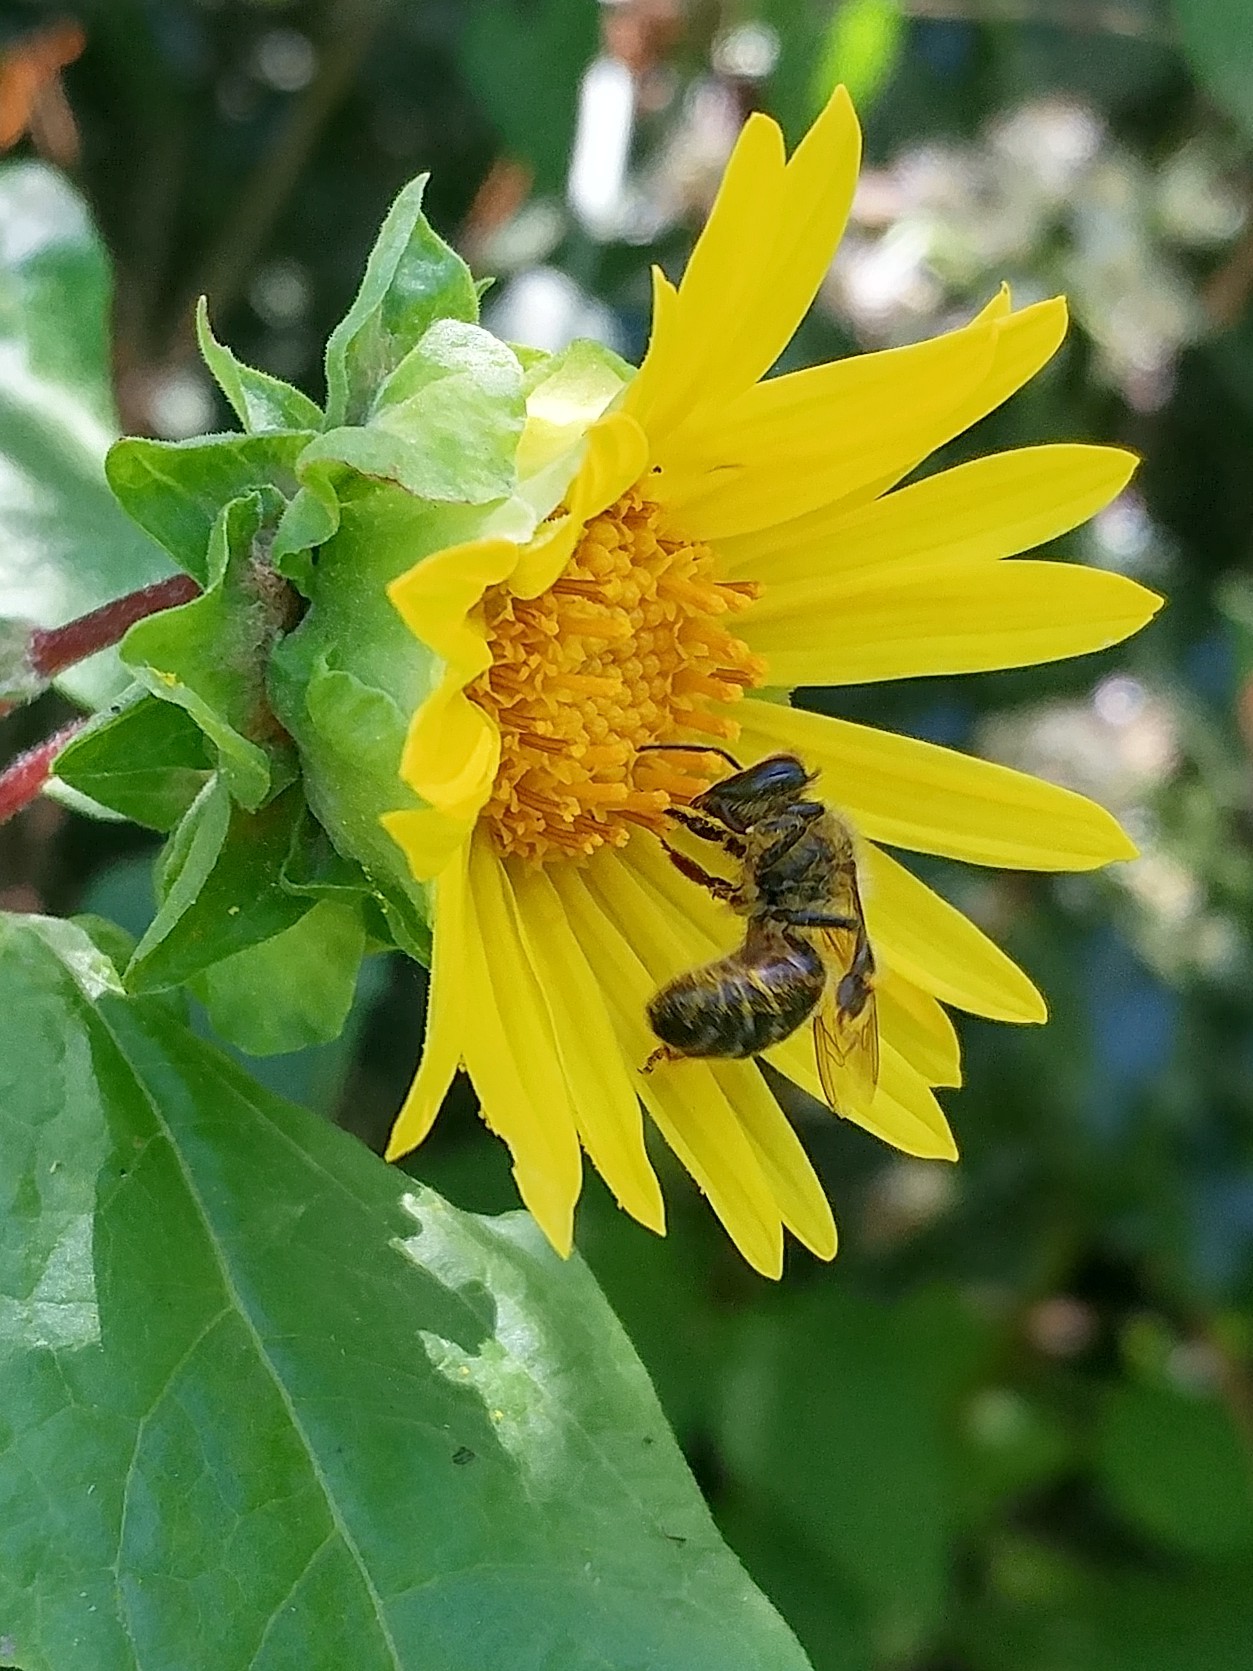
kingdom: Animalia
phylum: Arthropoda
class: Insecta
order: Hymenoptera
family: Apidae
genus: Apis
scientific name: Apis mellifera
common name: Honey bee
